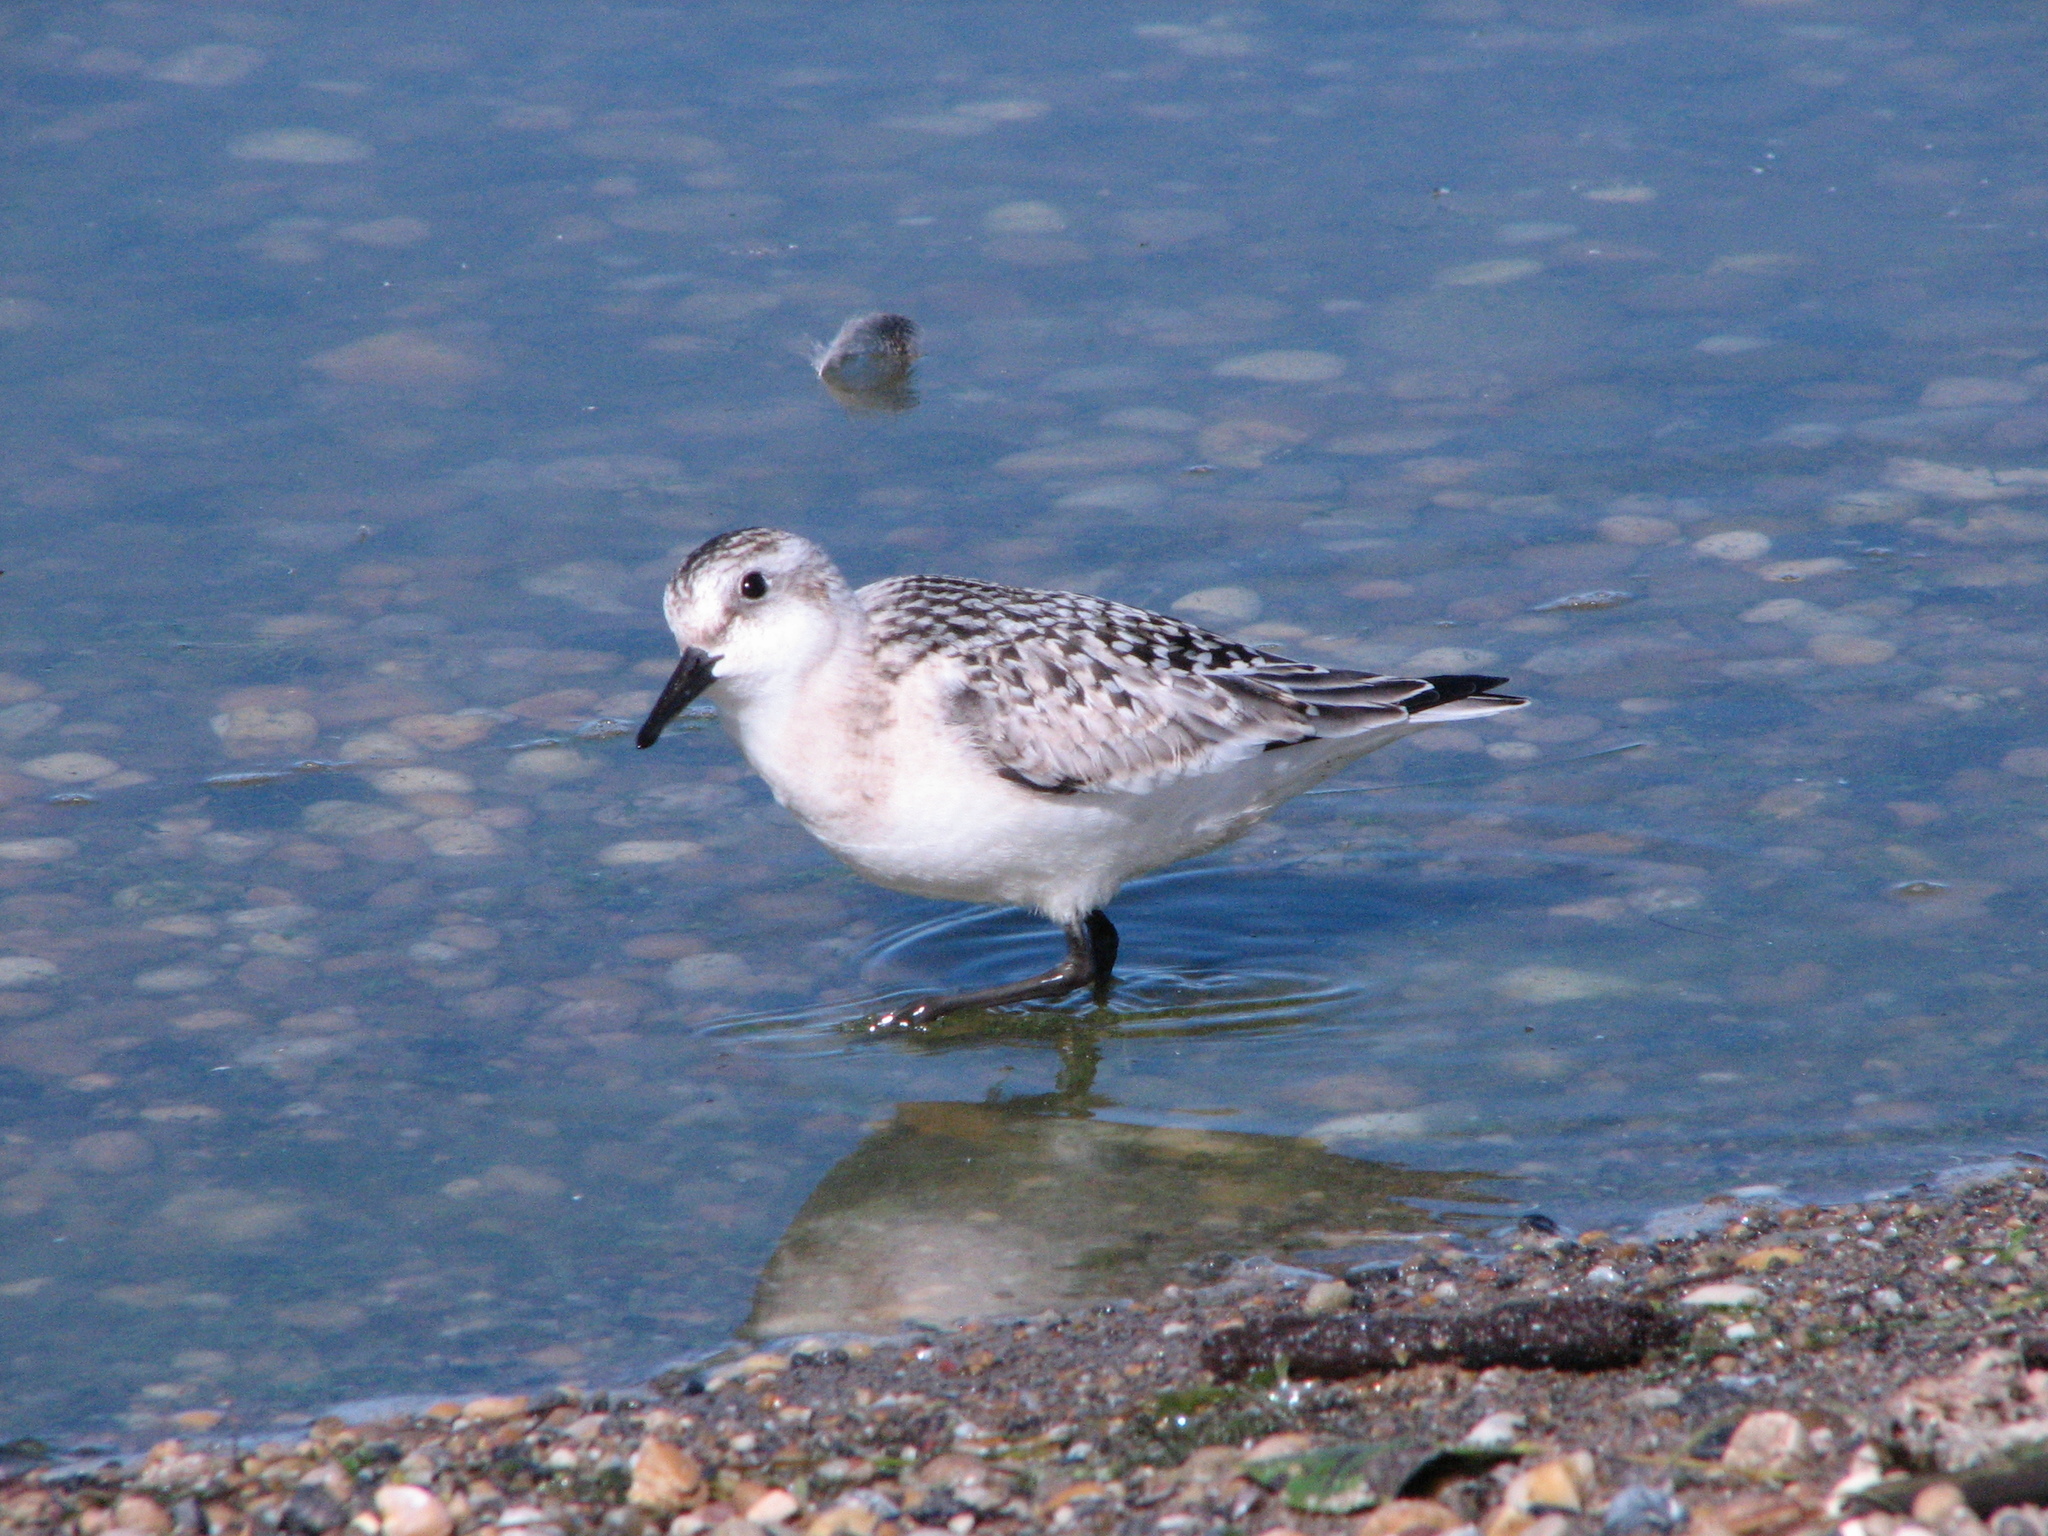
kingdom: Animalia
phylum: Chordata
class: Aves
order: Charadriiformes
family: Scolopacidae
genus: Calidris
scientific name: Calidris alba
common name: Sanderling
